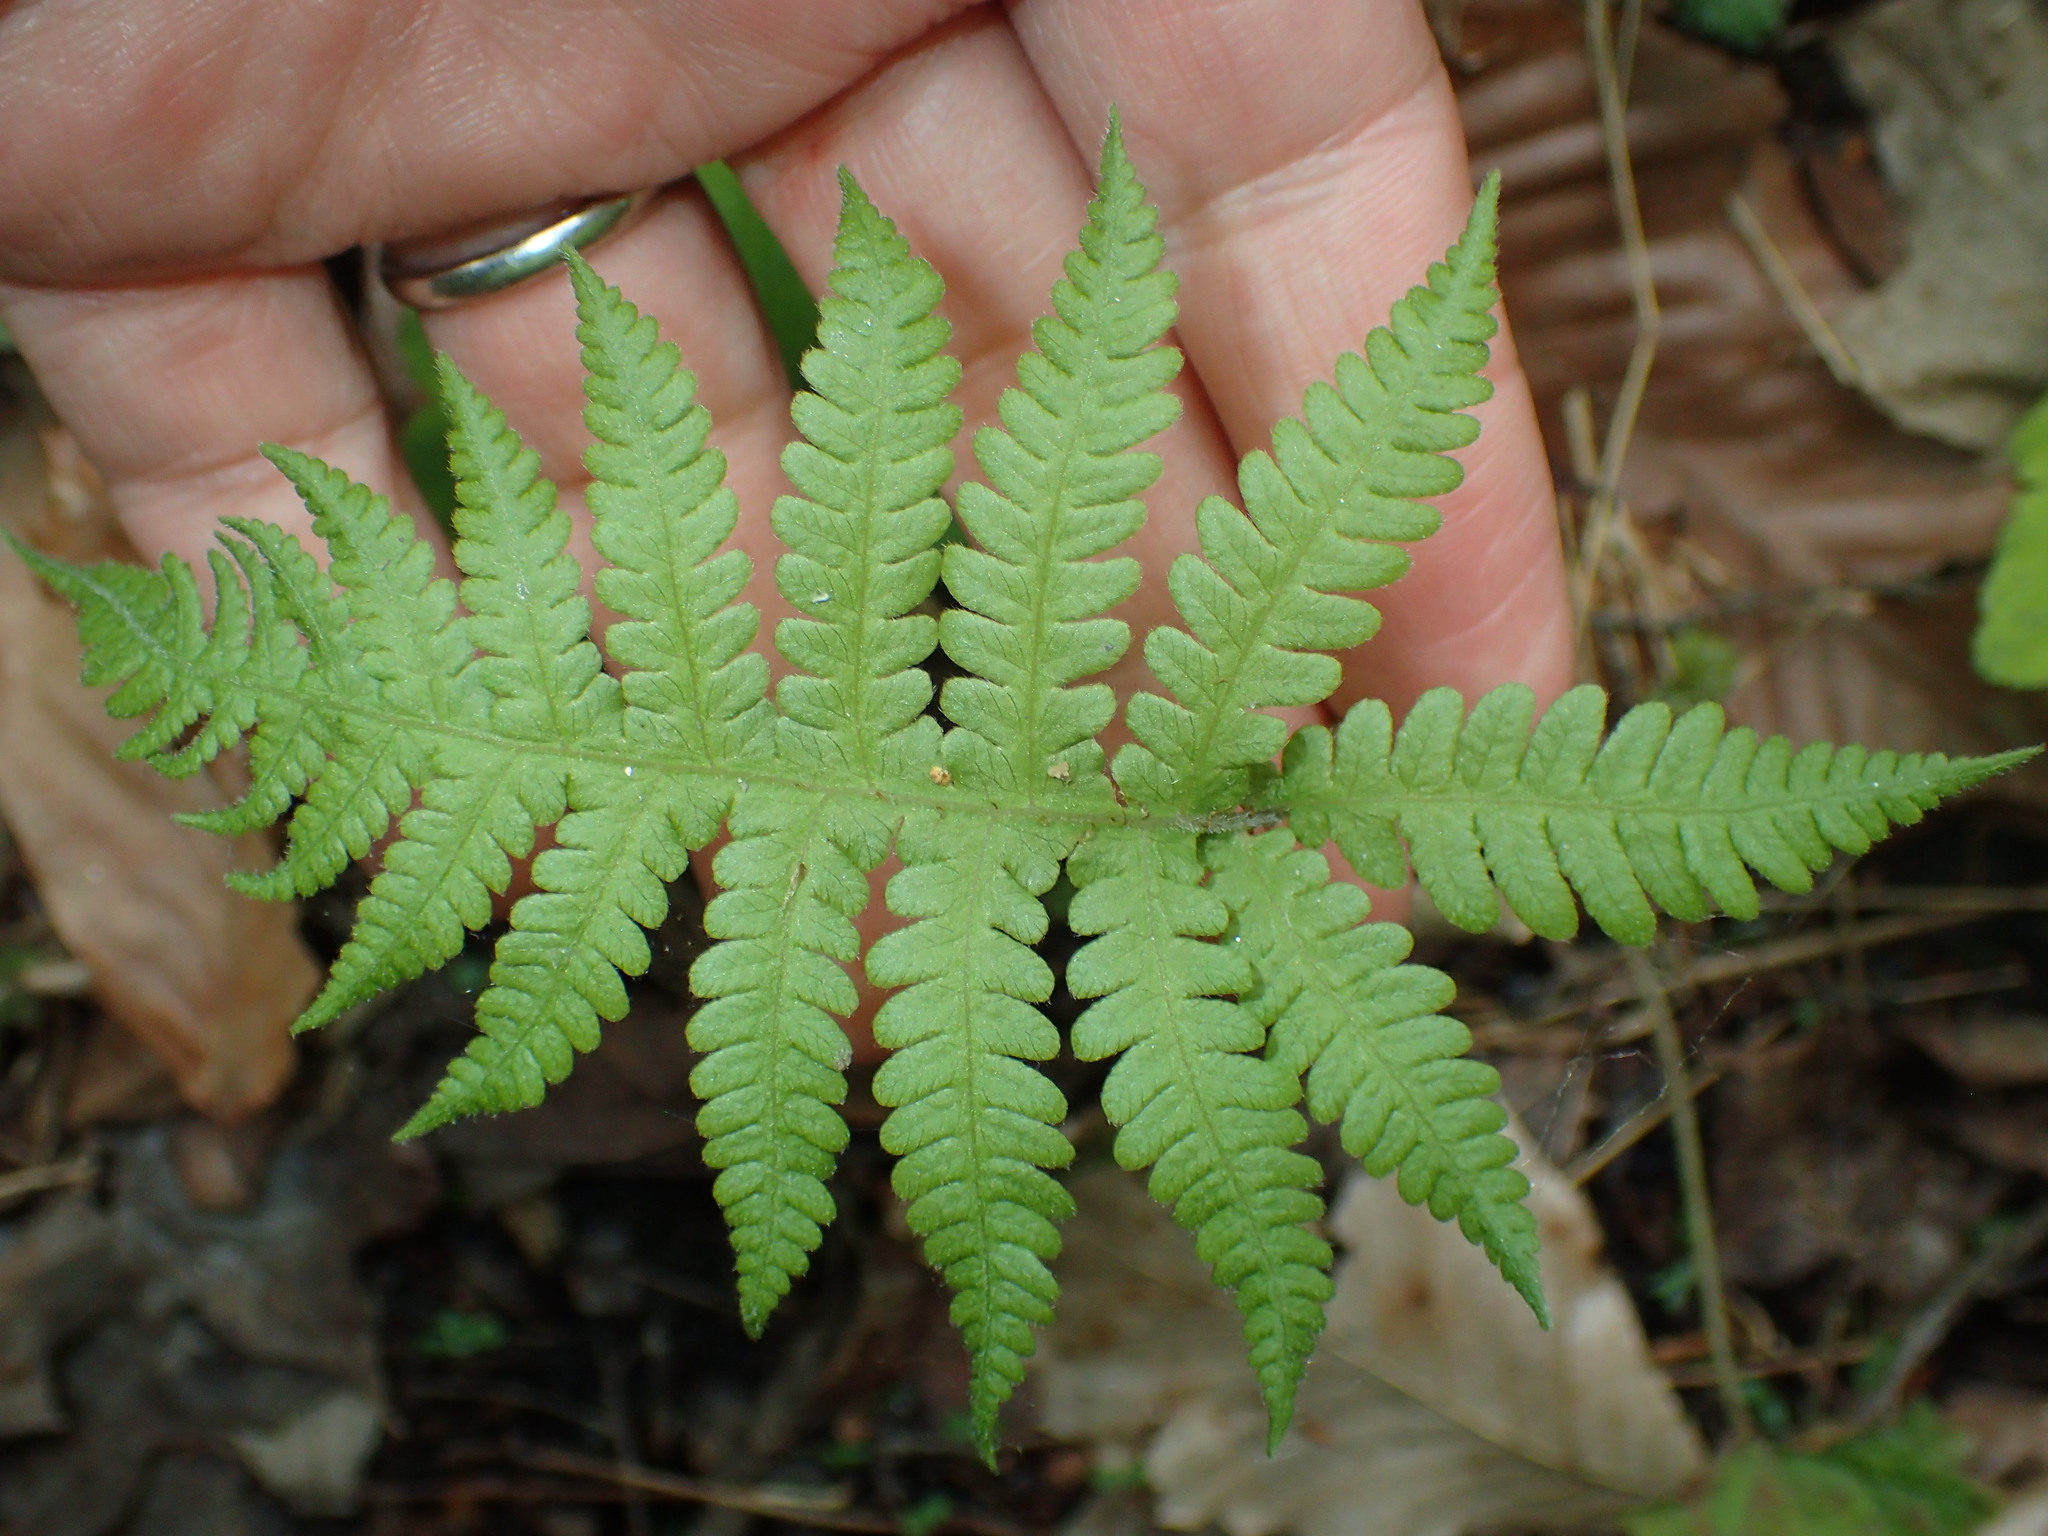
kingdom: Plantae
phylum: Tracheophyta
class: Polypodiopsida
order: Polypodiales
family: Thelypteridaceae
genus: Phegopteris
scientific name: Phegopteris connectilis
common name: Beech fern
